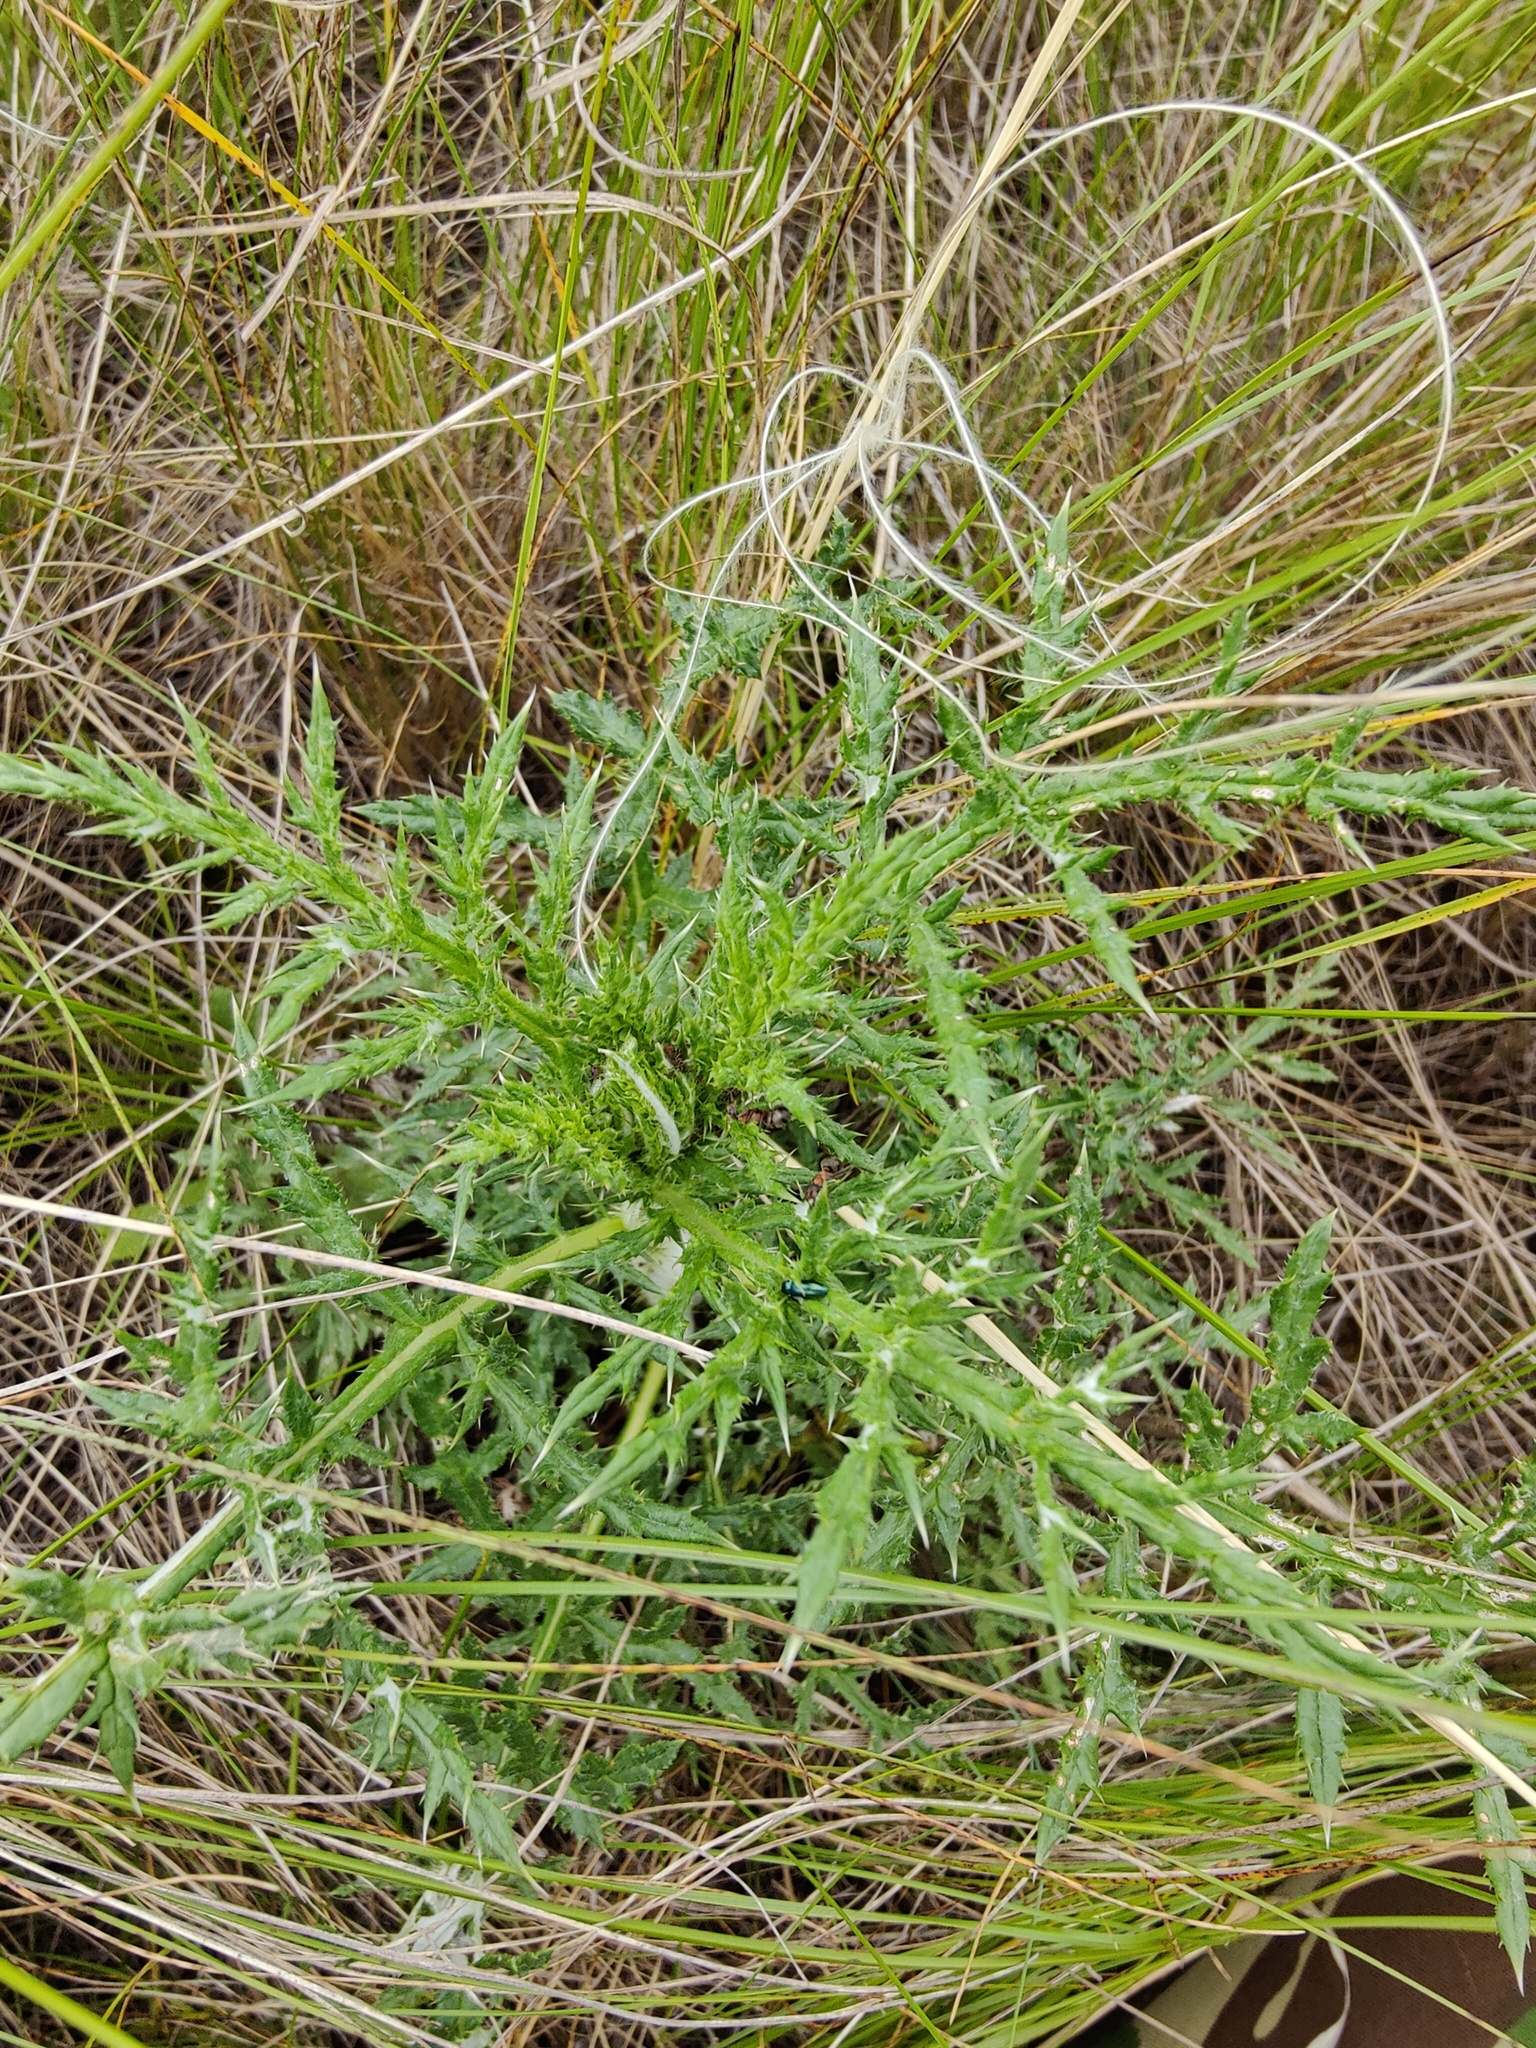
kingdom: Plantae
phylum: Tracheophyta
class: Magnoliopsida
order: Asterales
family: Asteraceae
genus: Echinops
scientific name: Echinops ritro
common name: Globe thistle
